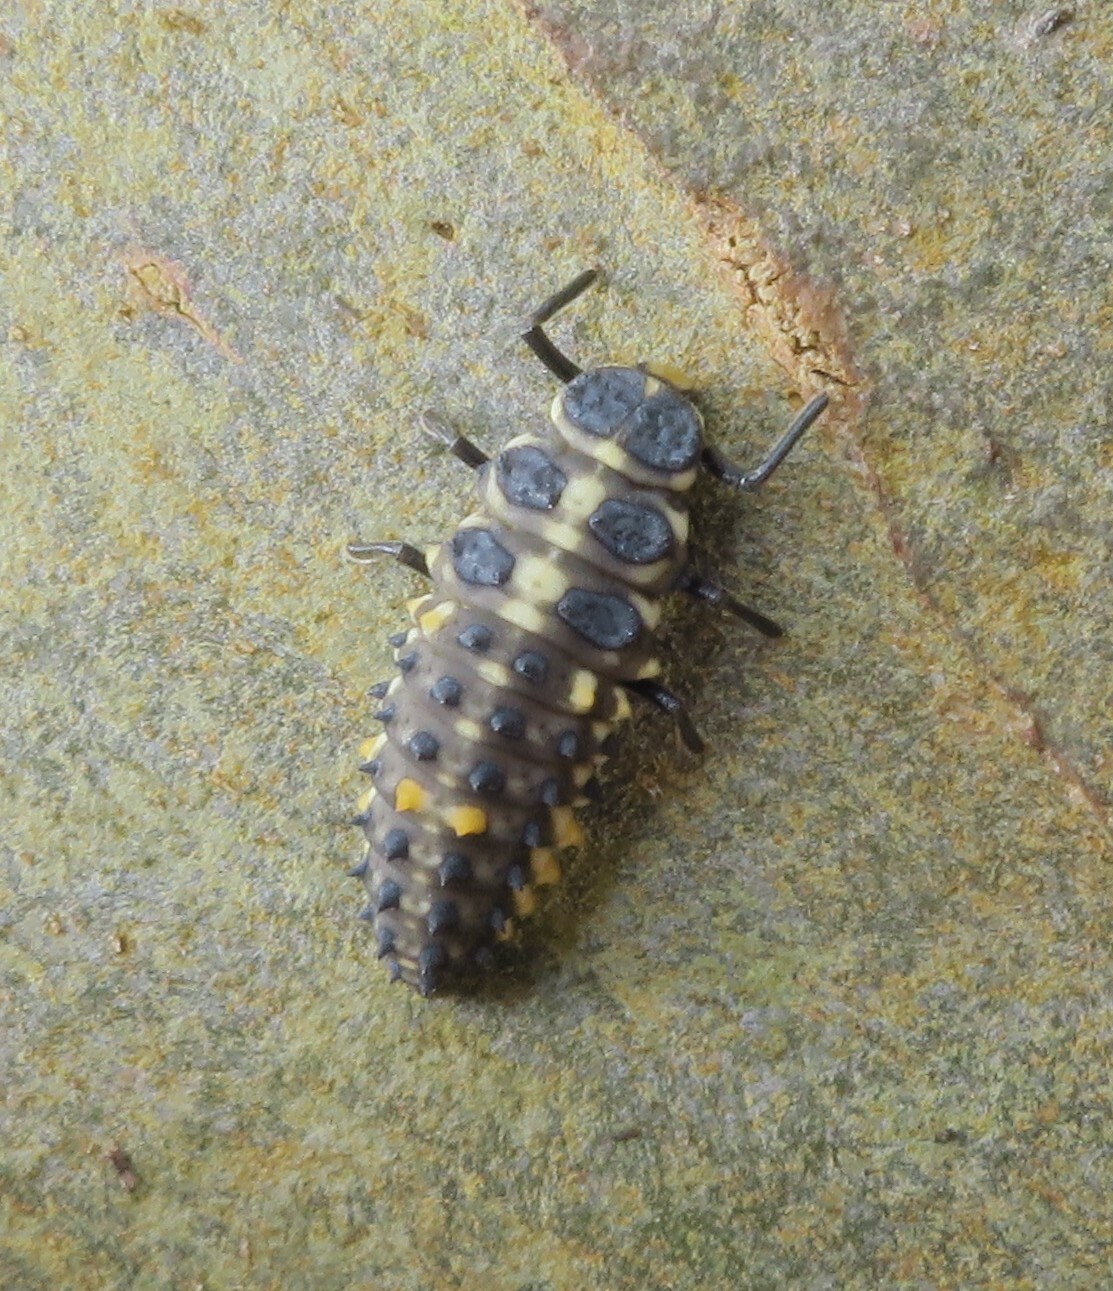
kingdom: Animalia
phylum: Arthropoda
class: Insecta
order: Coleoptera
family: Coccinellidae
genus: Cleobora
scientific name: Cleobora
